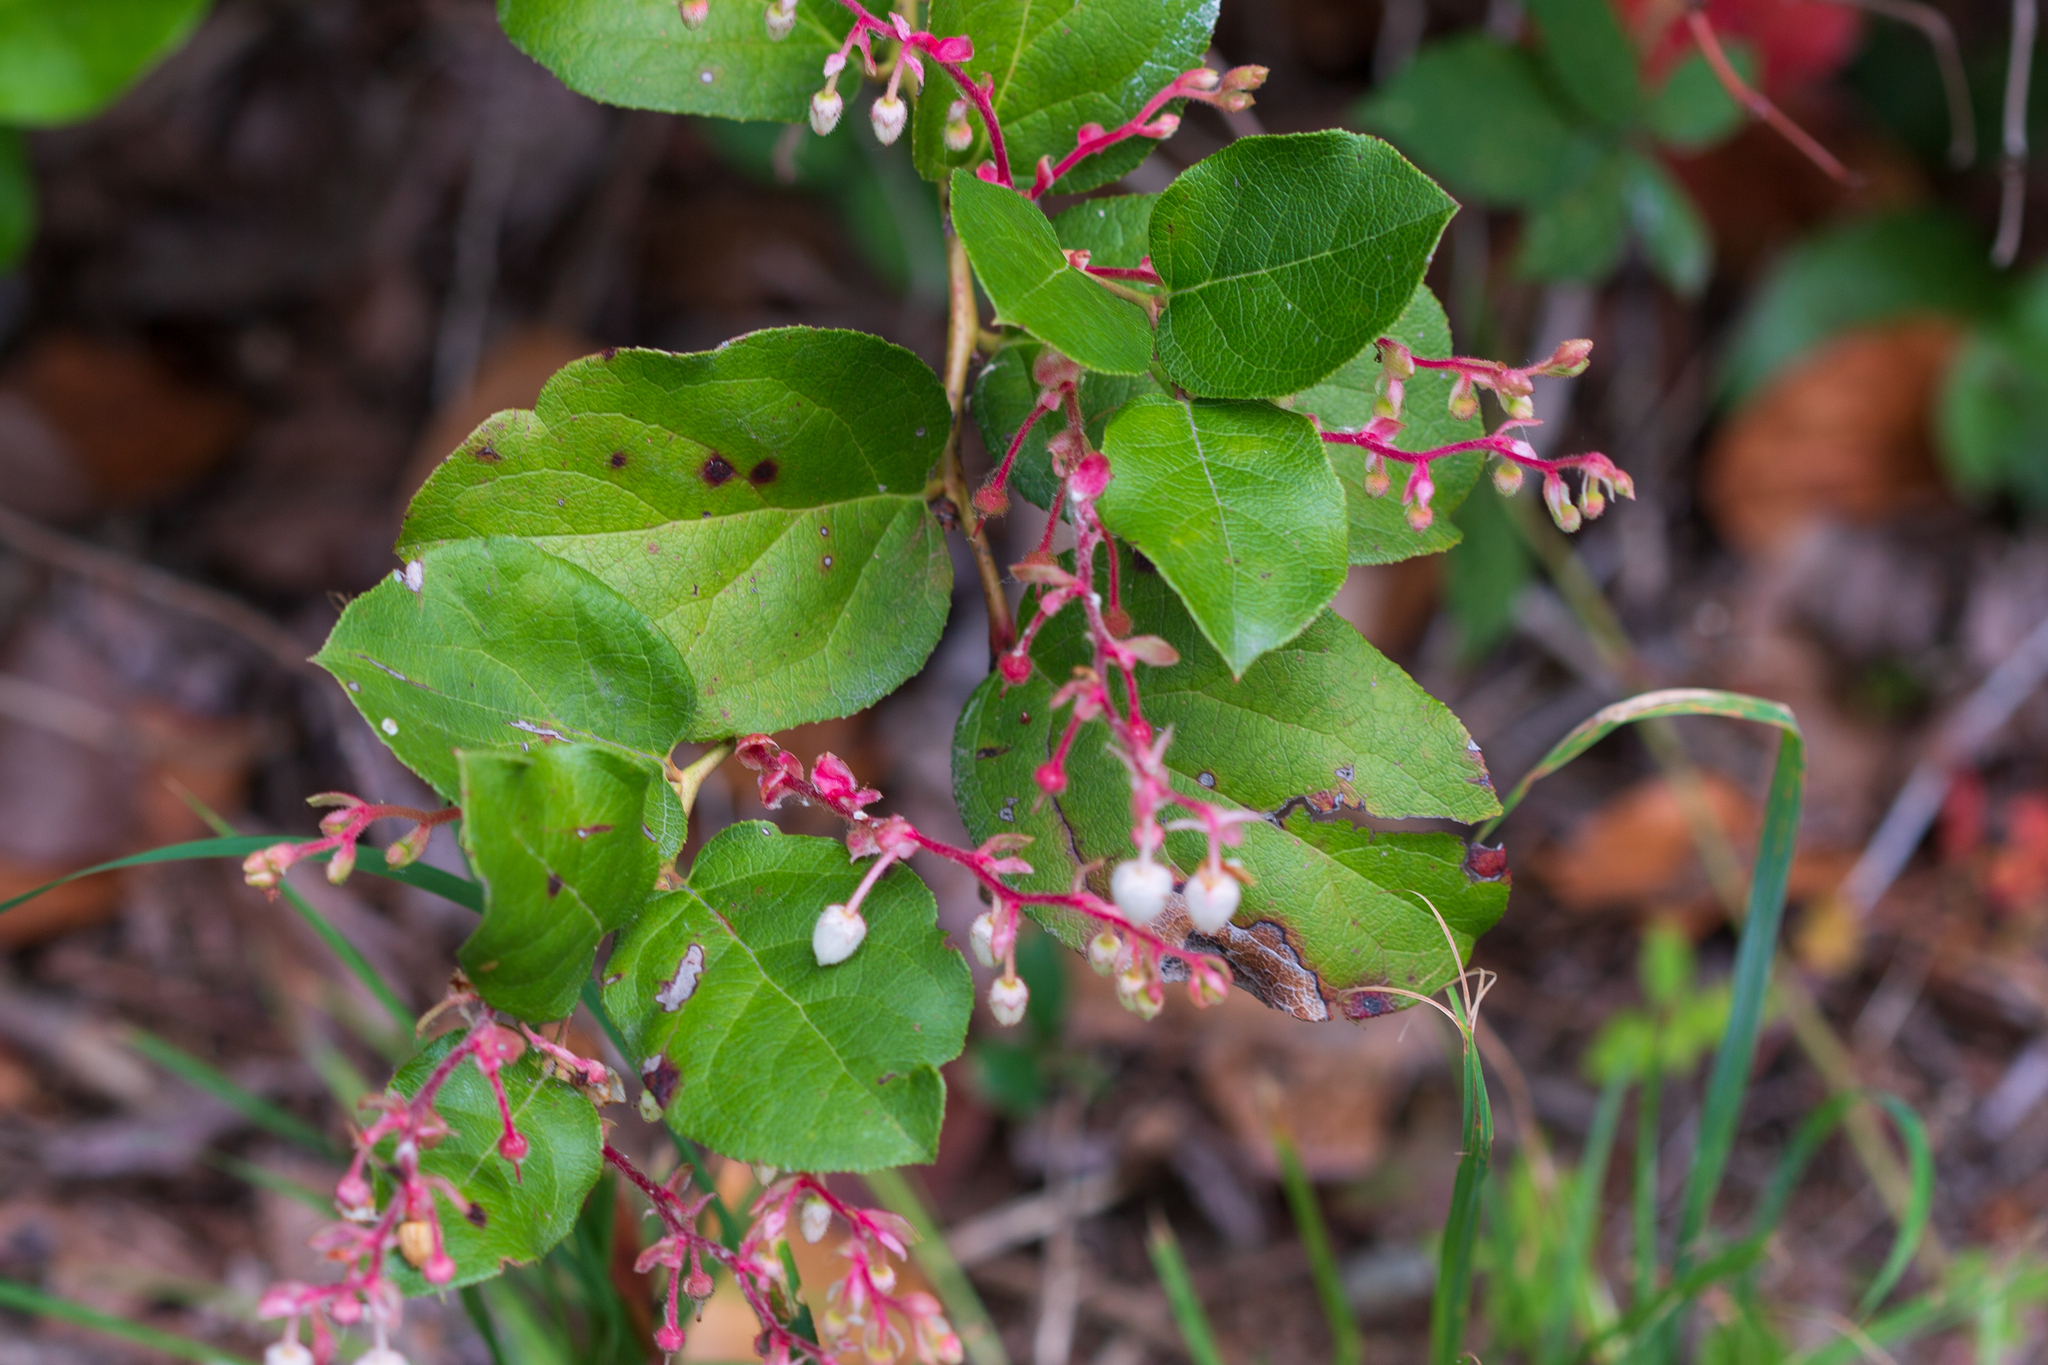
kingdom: Plantae
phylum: Tracheophyta
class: Magnoliopsida
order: Ericales
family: Ericaceae
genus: Gaultheria
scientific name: Gaultheria shallon
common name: Shallon
